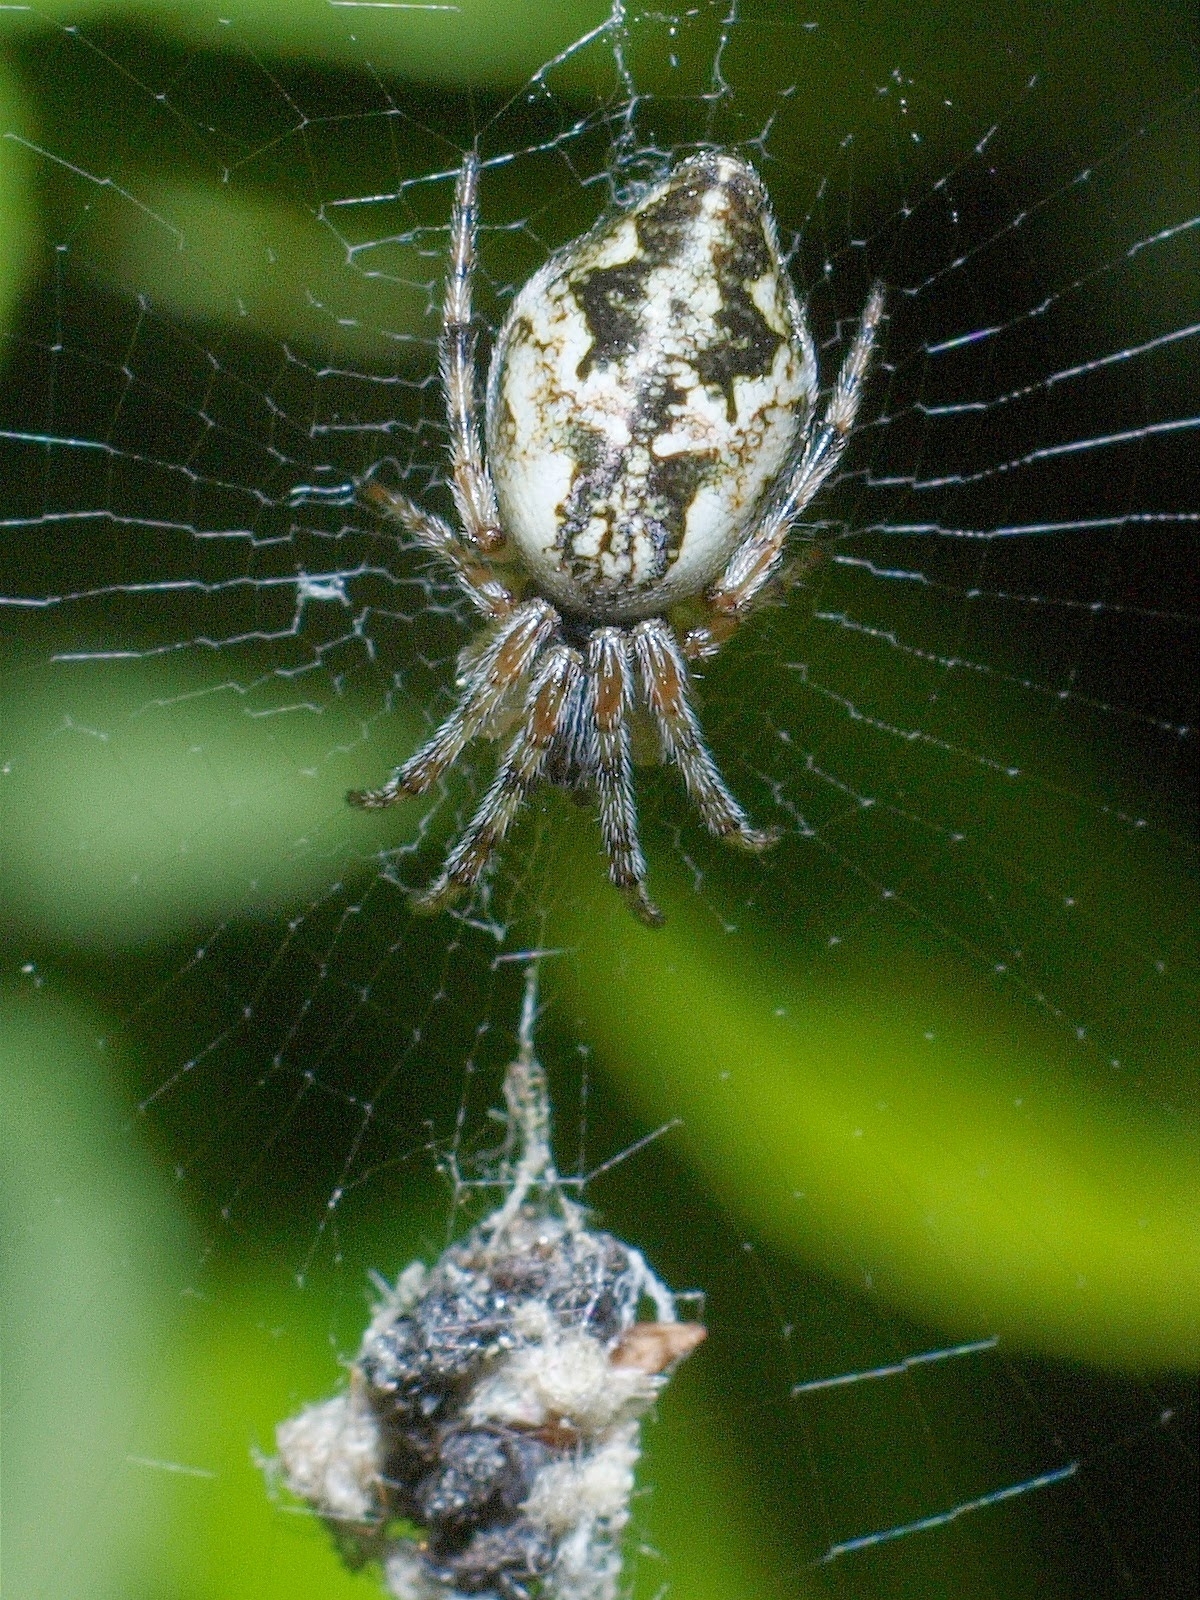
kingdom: Animalia
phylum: Arthropoda
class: Arachnida
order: Araneae
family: Araneidae
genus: Cyclosa
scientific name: Cyclosa conica
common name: Conical trashline orbweaver
